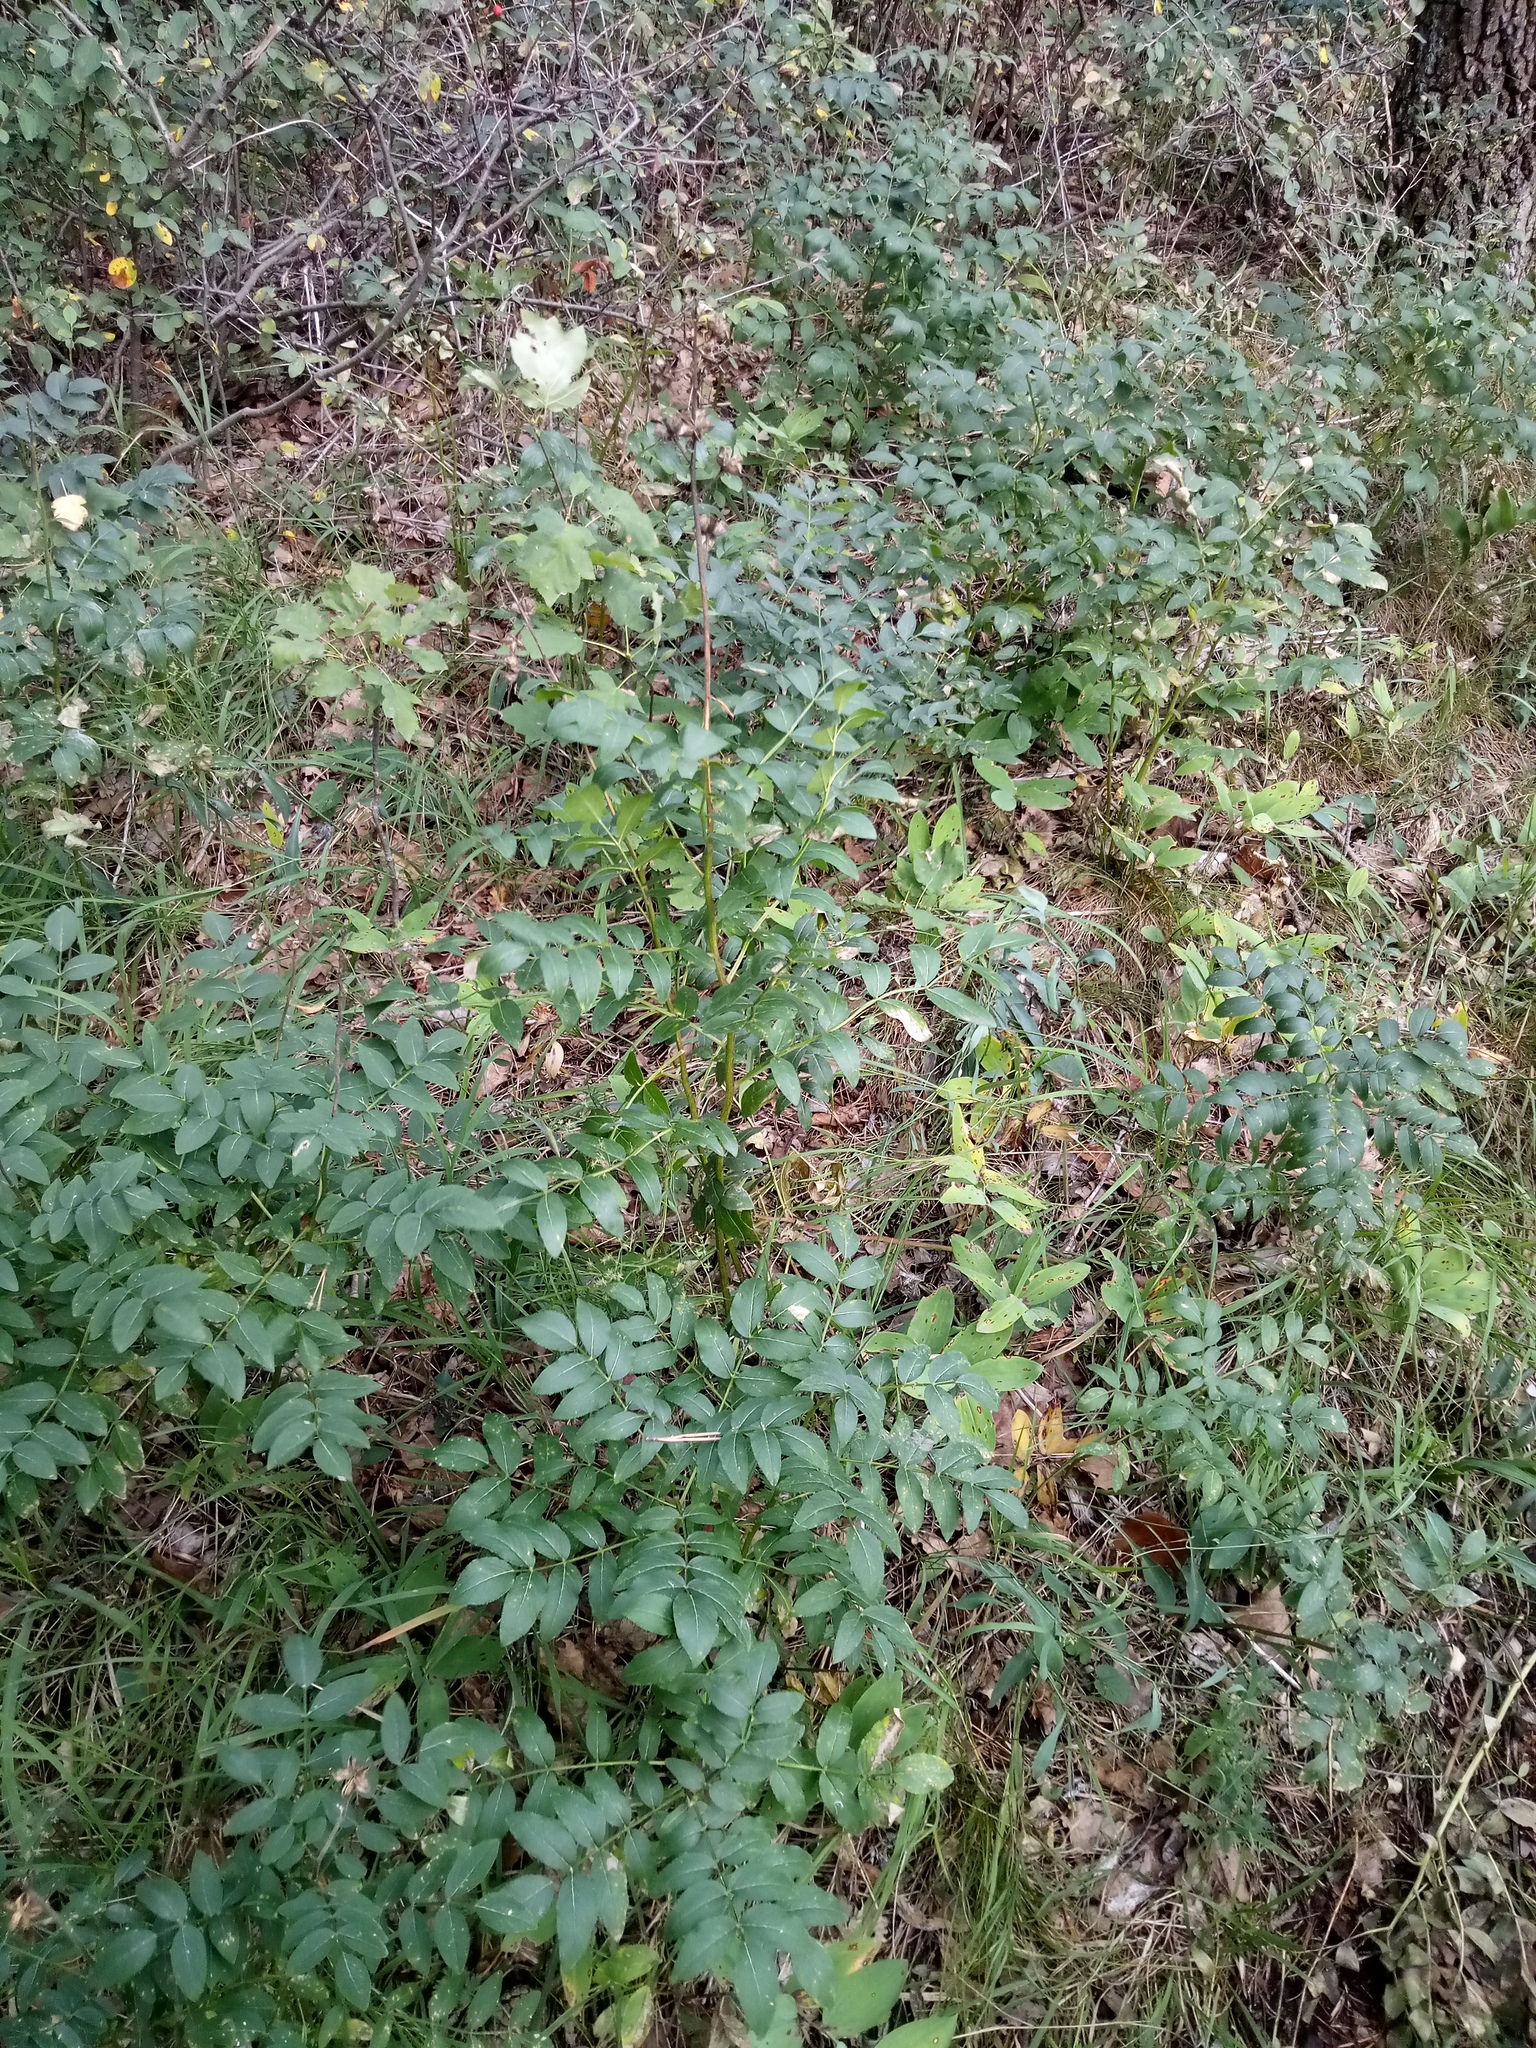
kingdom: Plantae
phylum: Tracheophyta
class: Magnoliopsida
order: Sapindales
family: Rutaceae
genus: Dictamnus
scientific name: Dictamnus albus
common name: Gasplant
